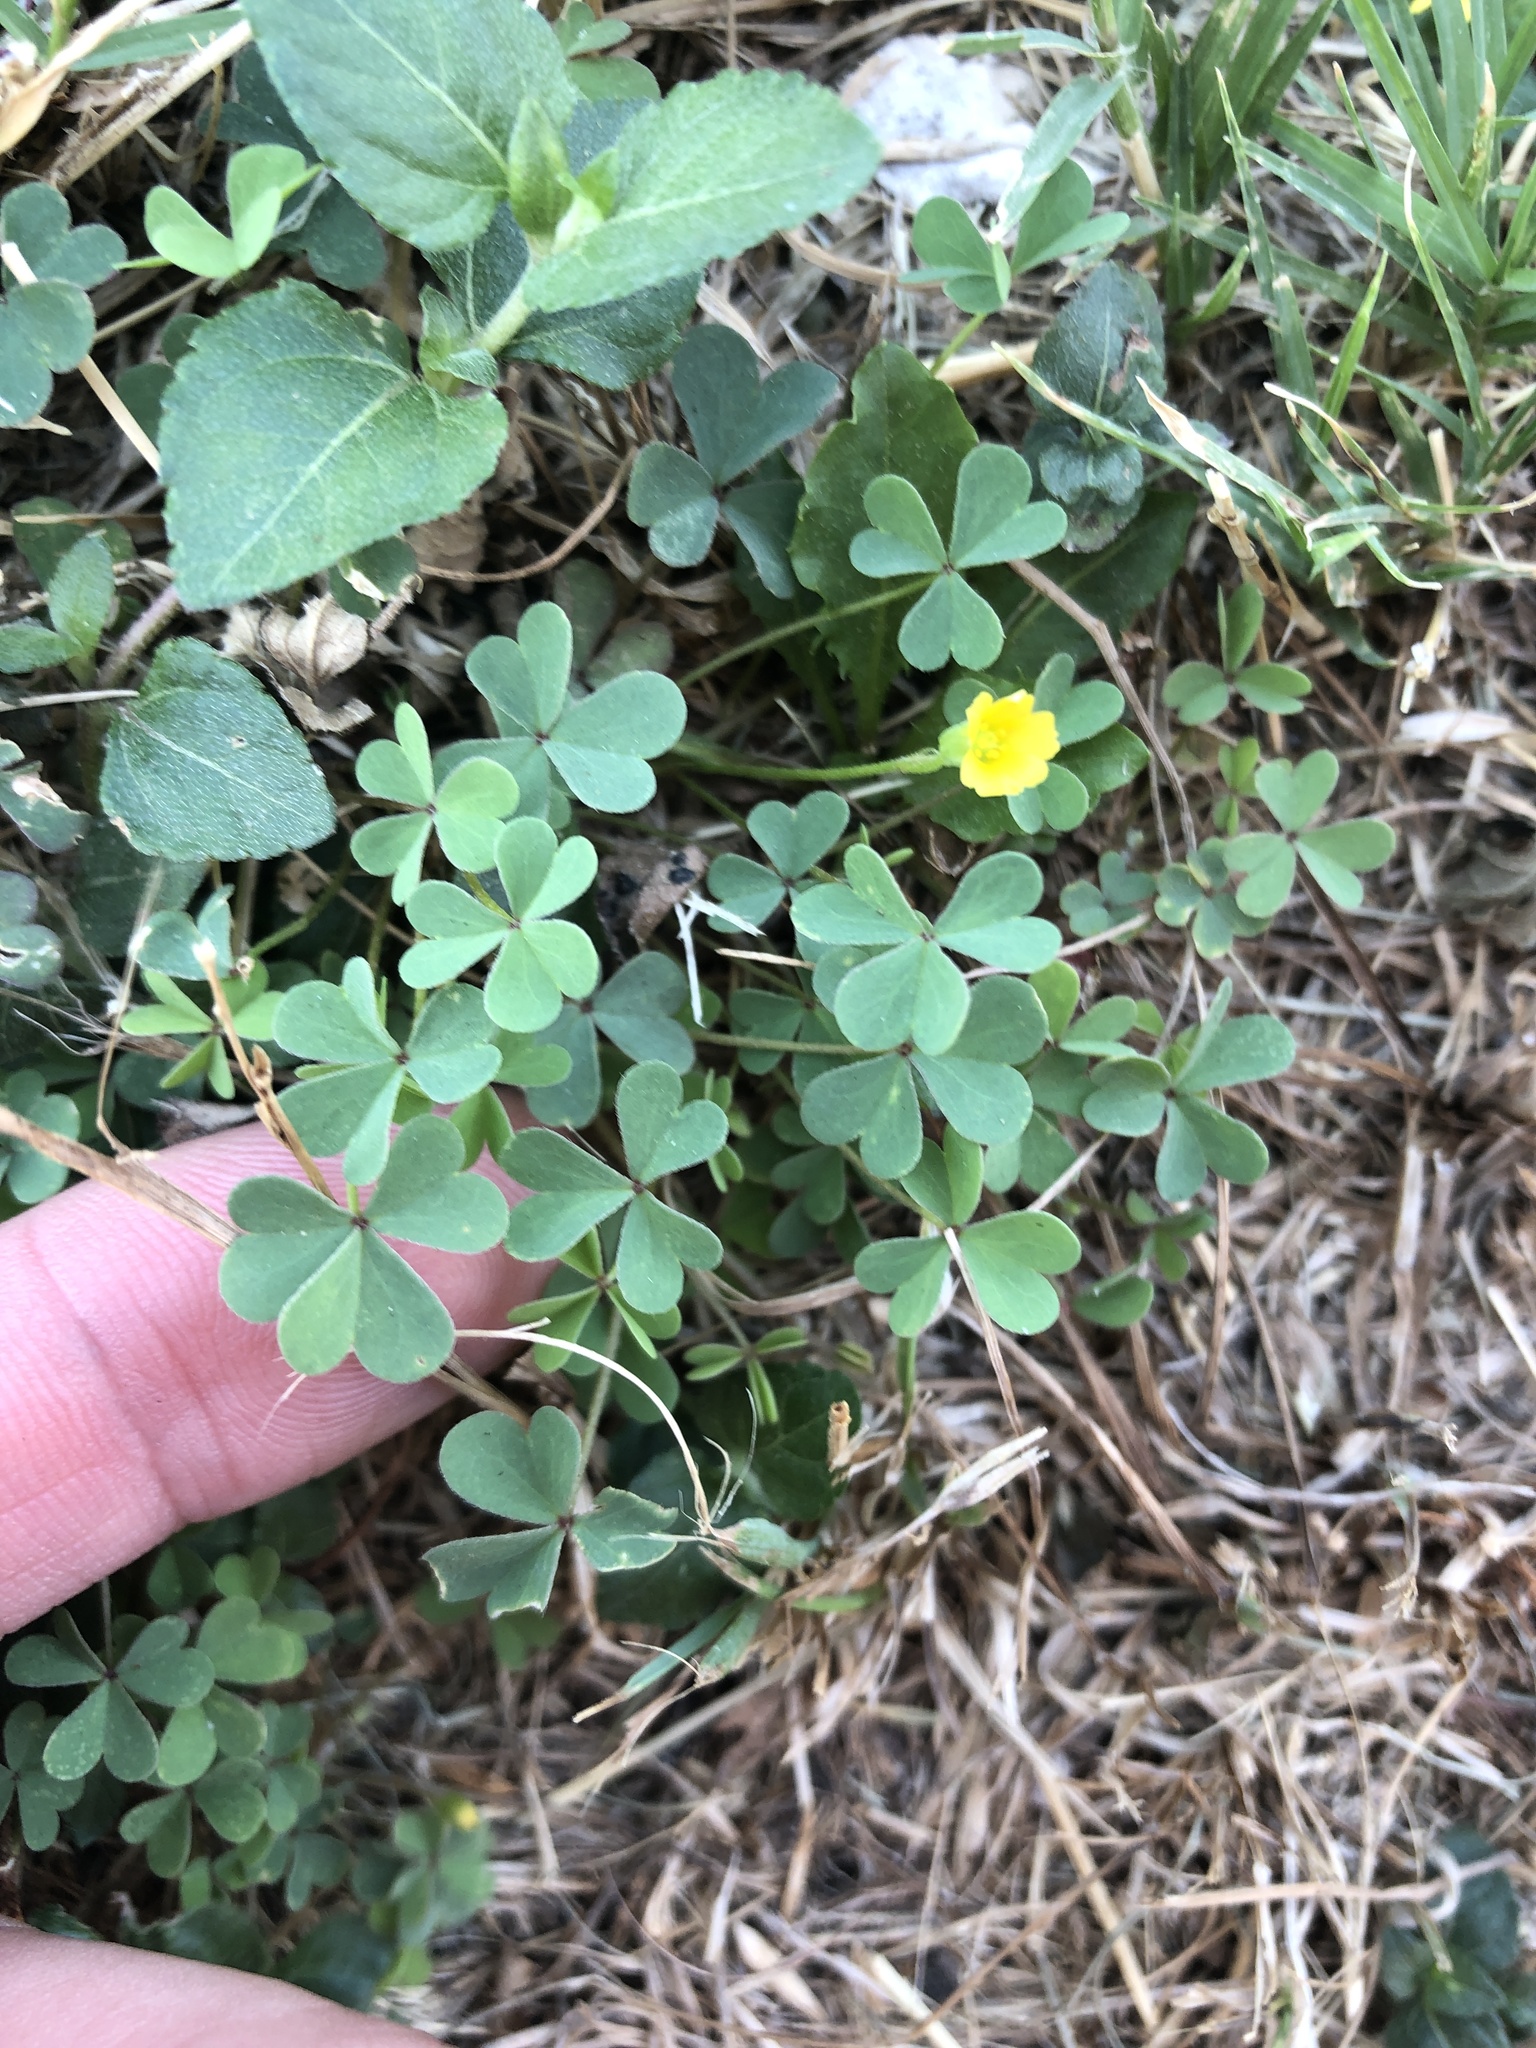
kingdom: Plantae
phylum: Tracheophyta
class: Magnoliopsida
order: Oxalidales
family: Oxalidaceae
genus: Oxalis
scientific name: Oxalis dillenii
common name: Sussex yellow-sorrel
